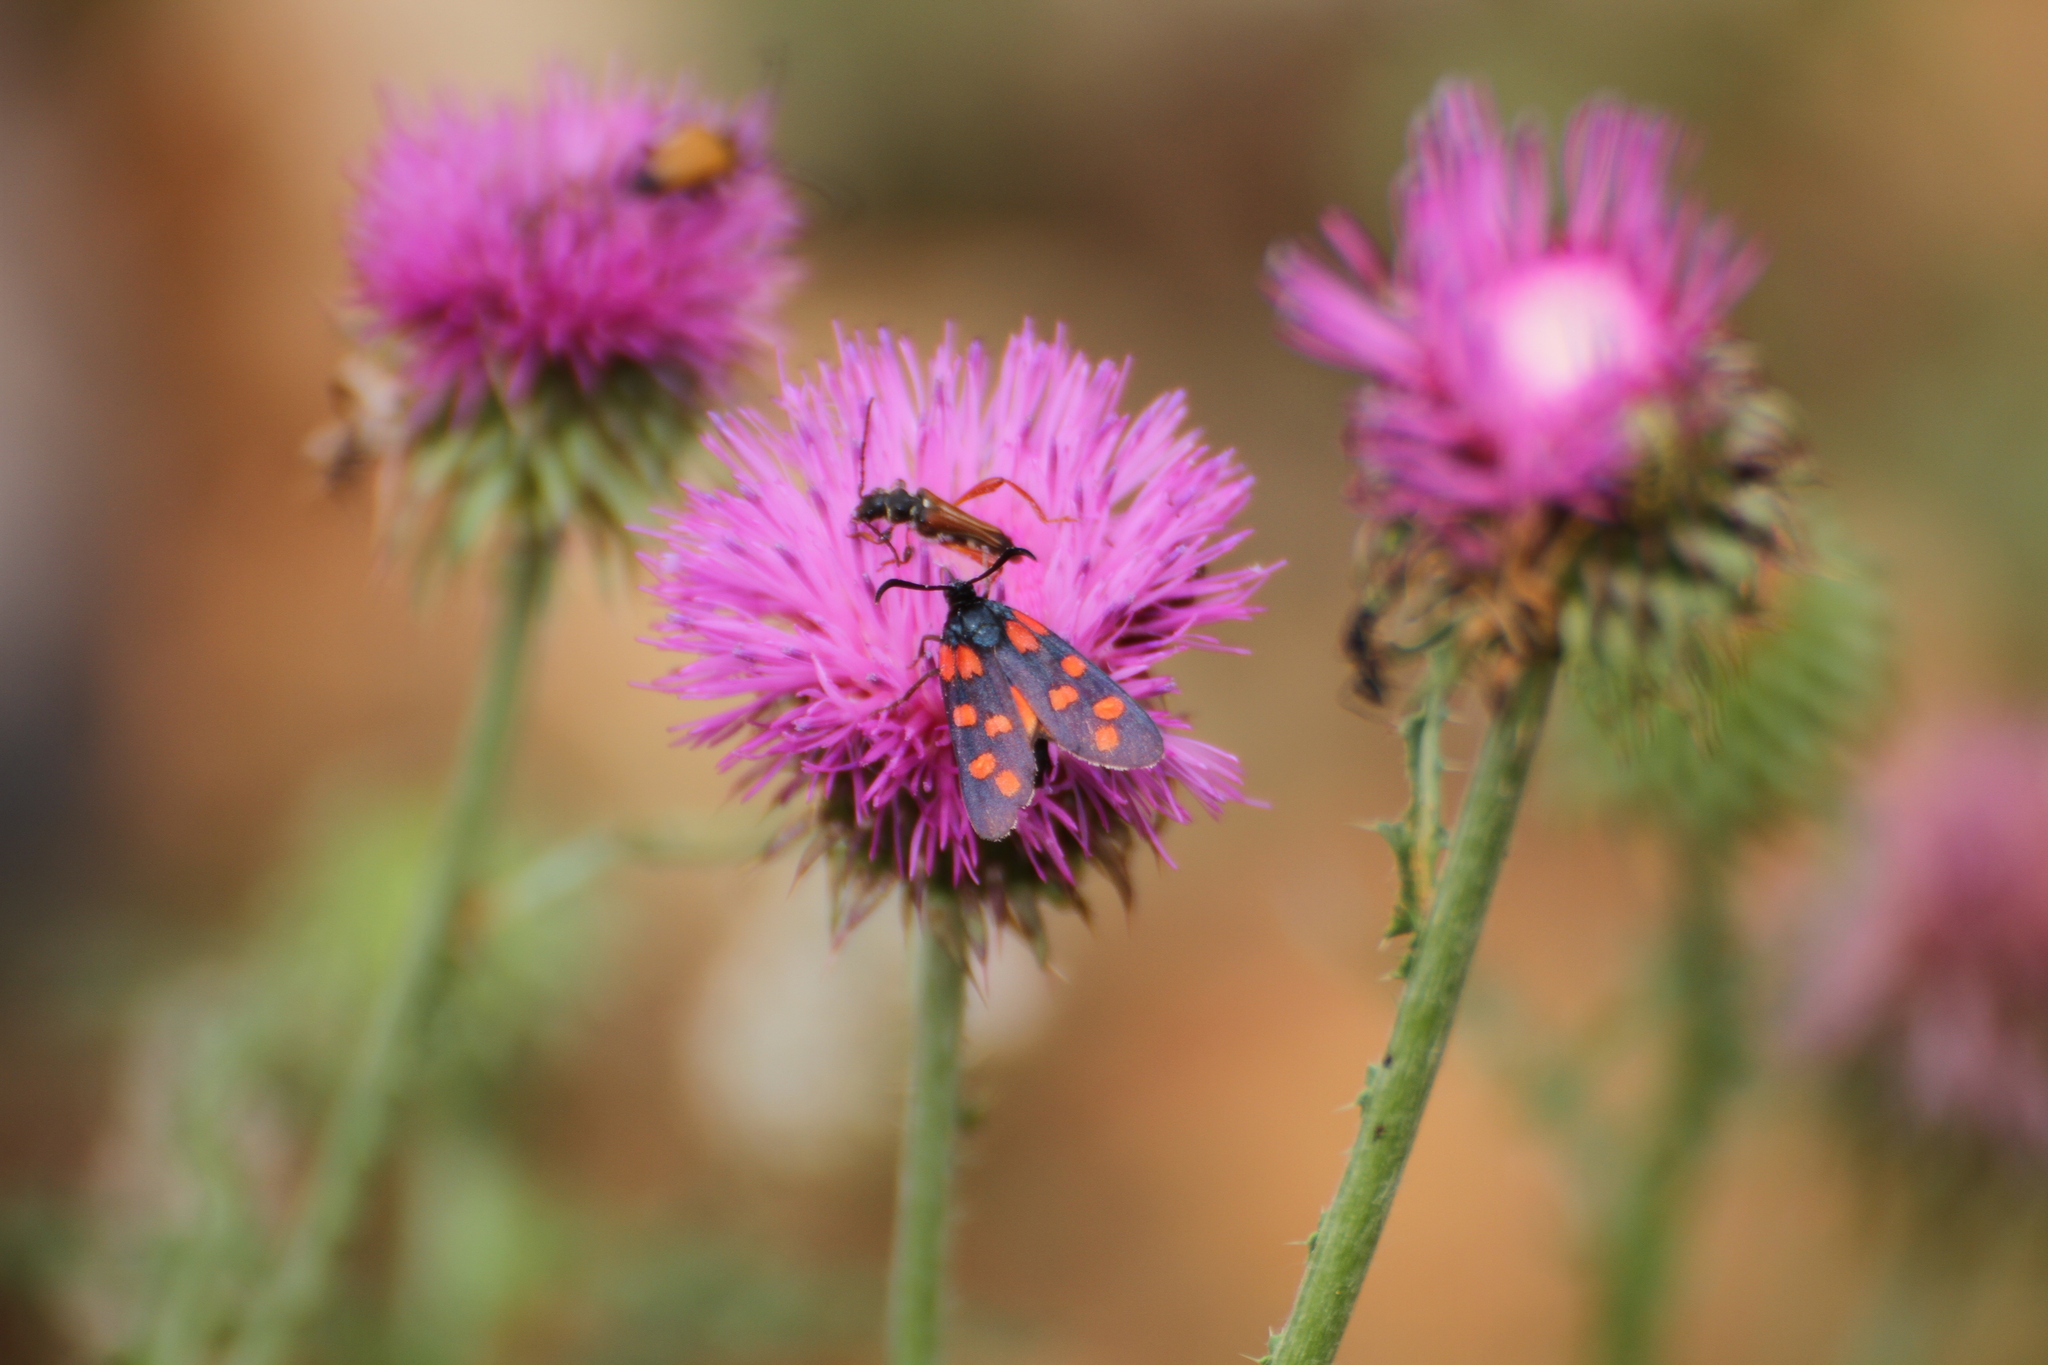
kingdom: Animalia
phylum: Arthropoda
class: Insecta
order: Lepidoptera
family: Zygaenidae
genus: Zygaena
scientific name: Zygaena transalpina
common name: Southern six spot burnet
